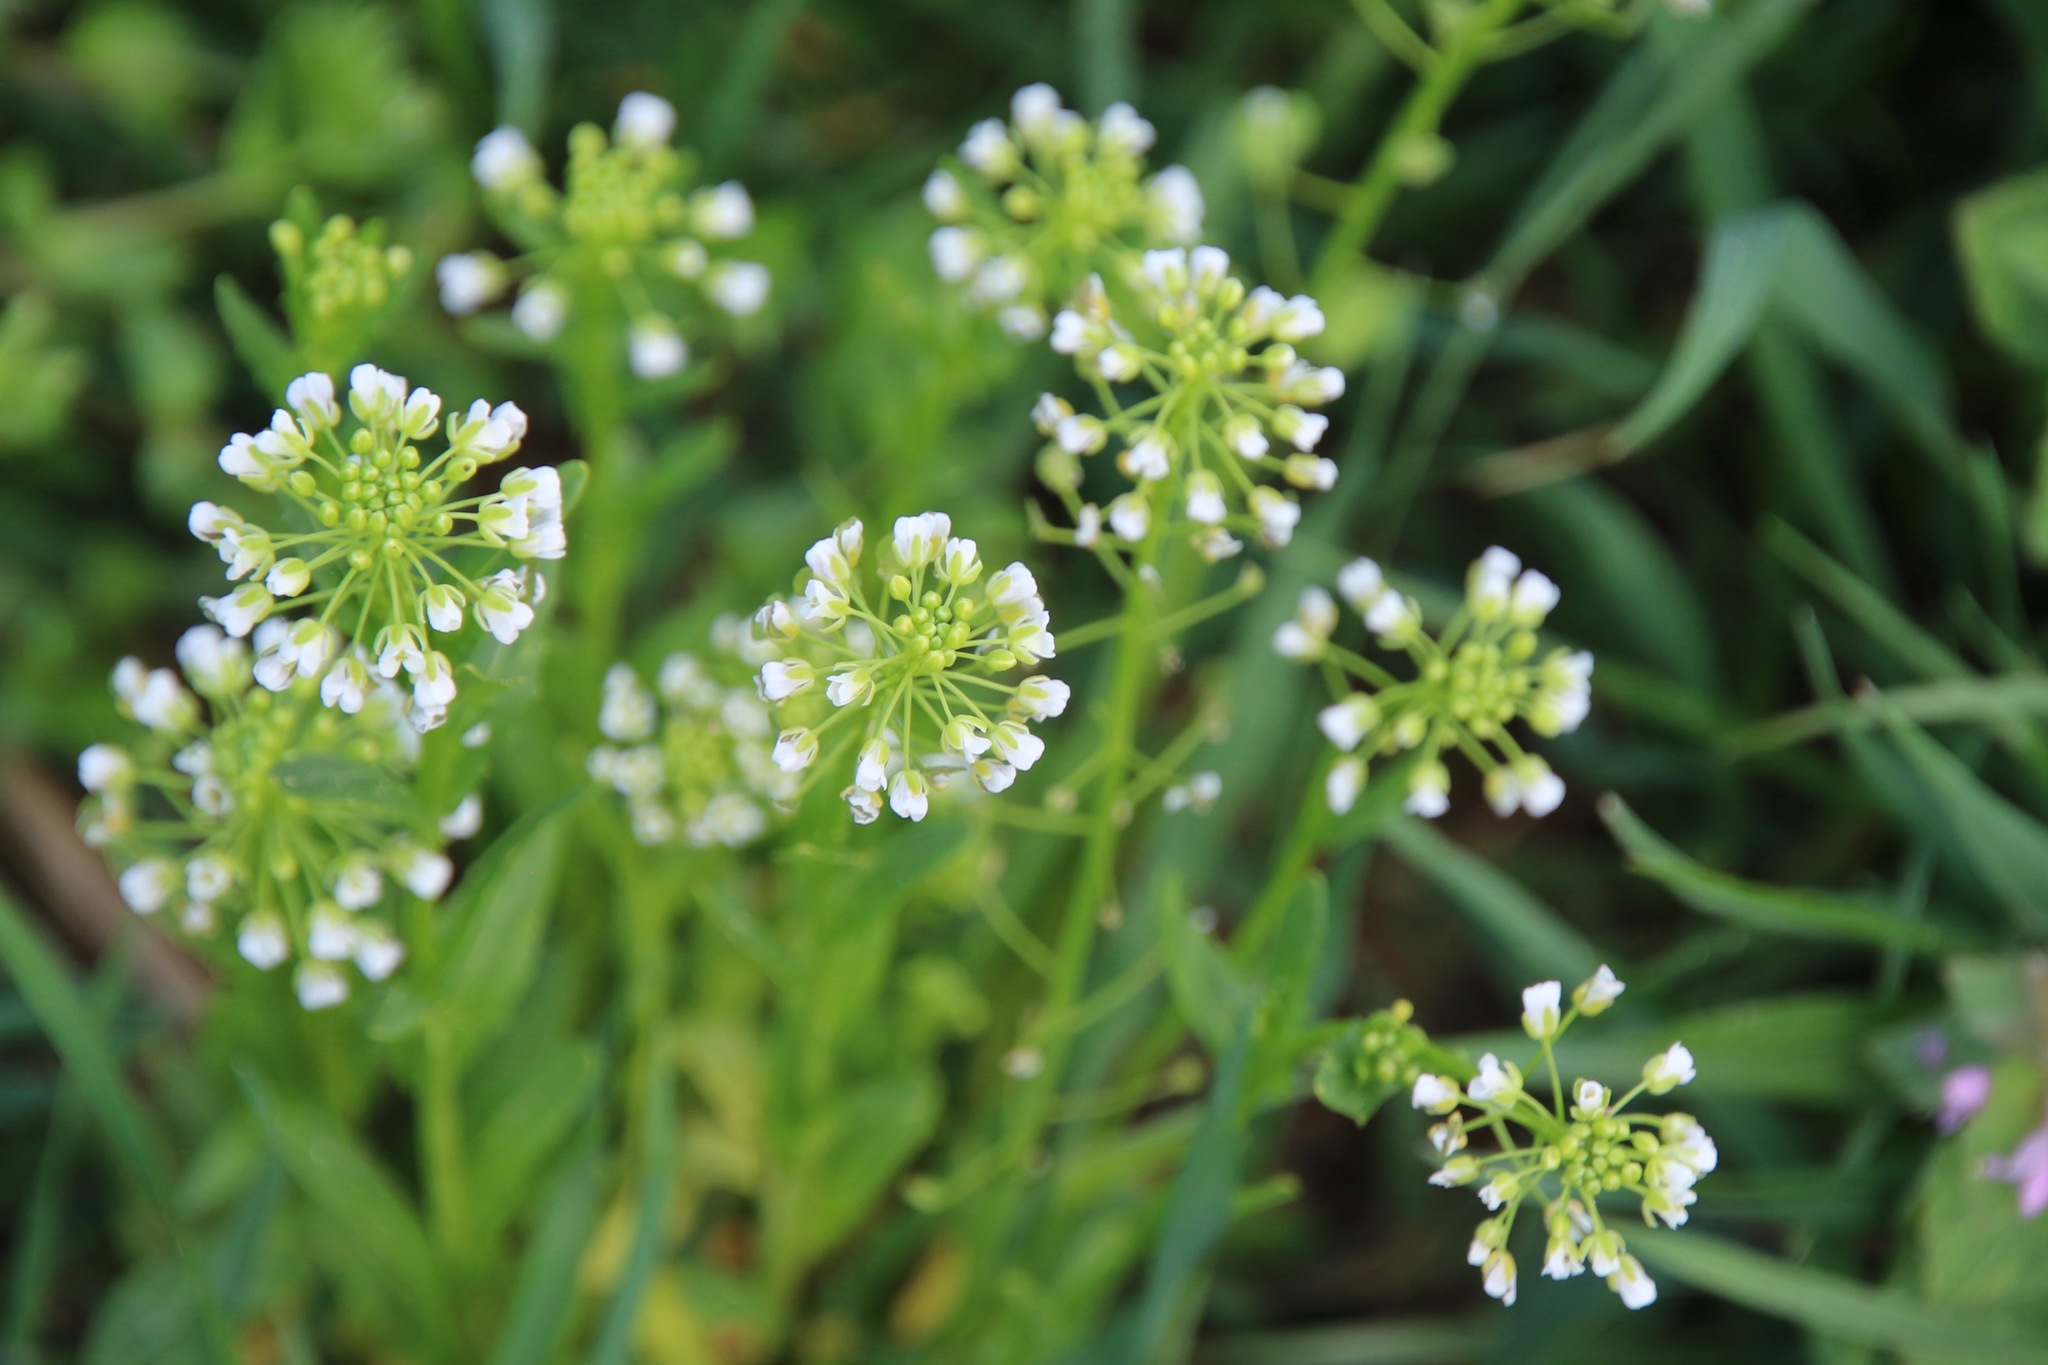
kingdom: Plantae
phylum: Tracheophyta
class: Magnoliopsida
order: Brassicales
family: Brassicaceae
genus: Thlaspi
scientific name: Thlaspi arvense
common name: Field pennycress
